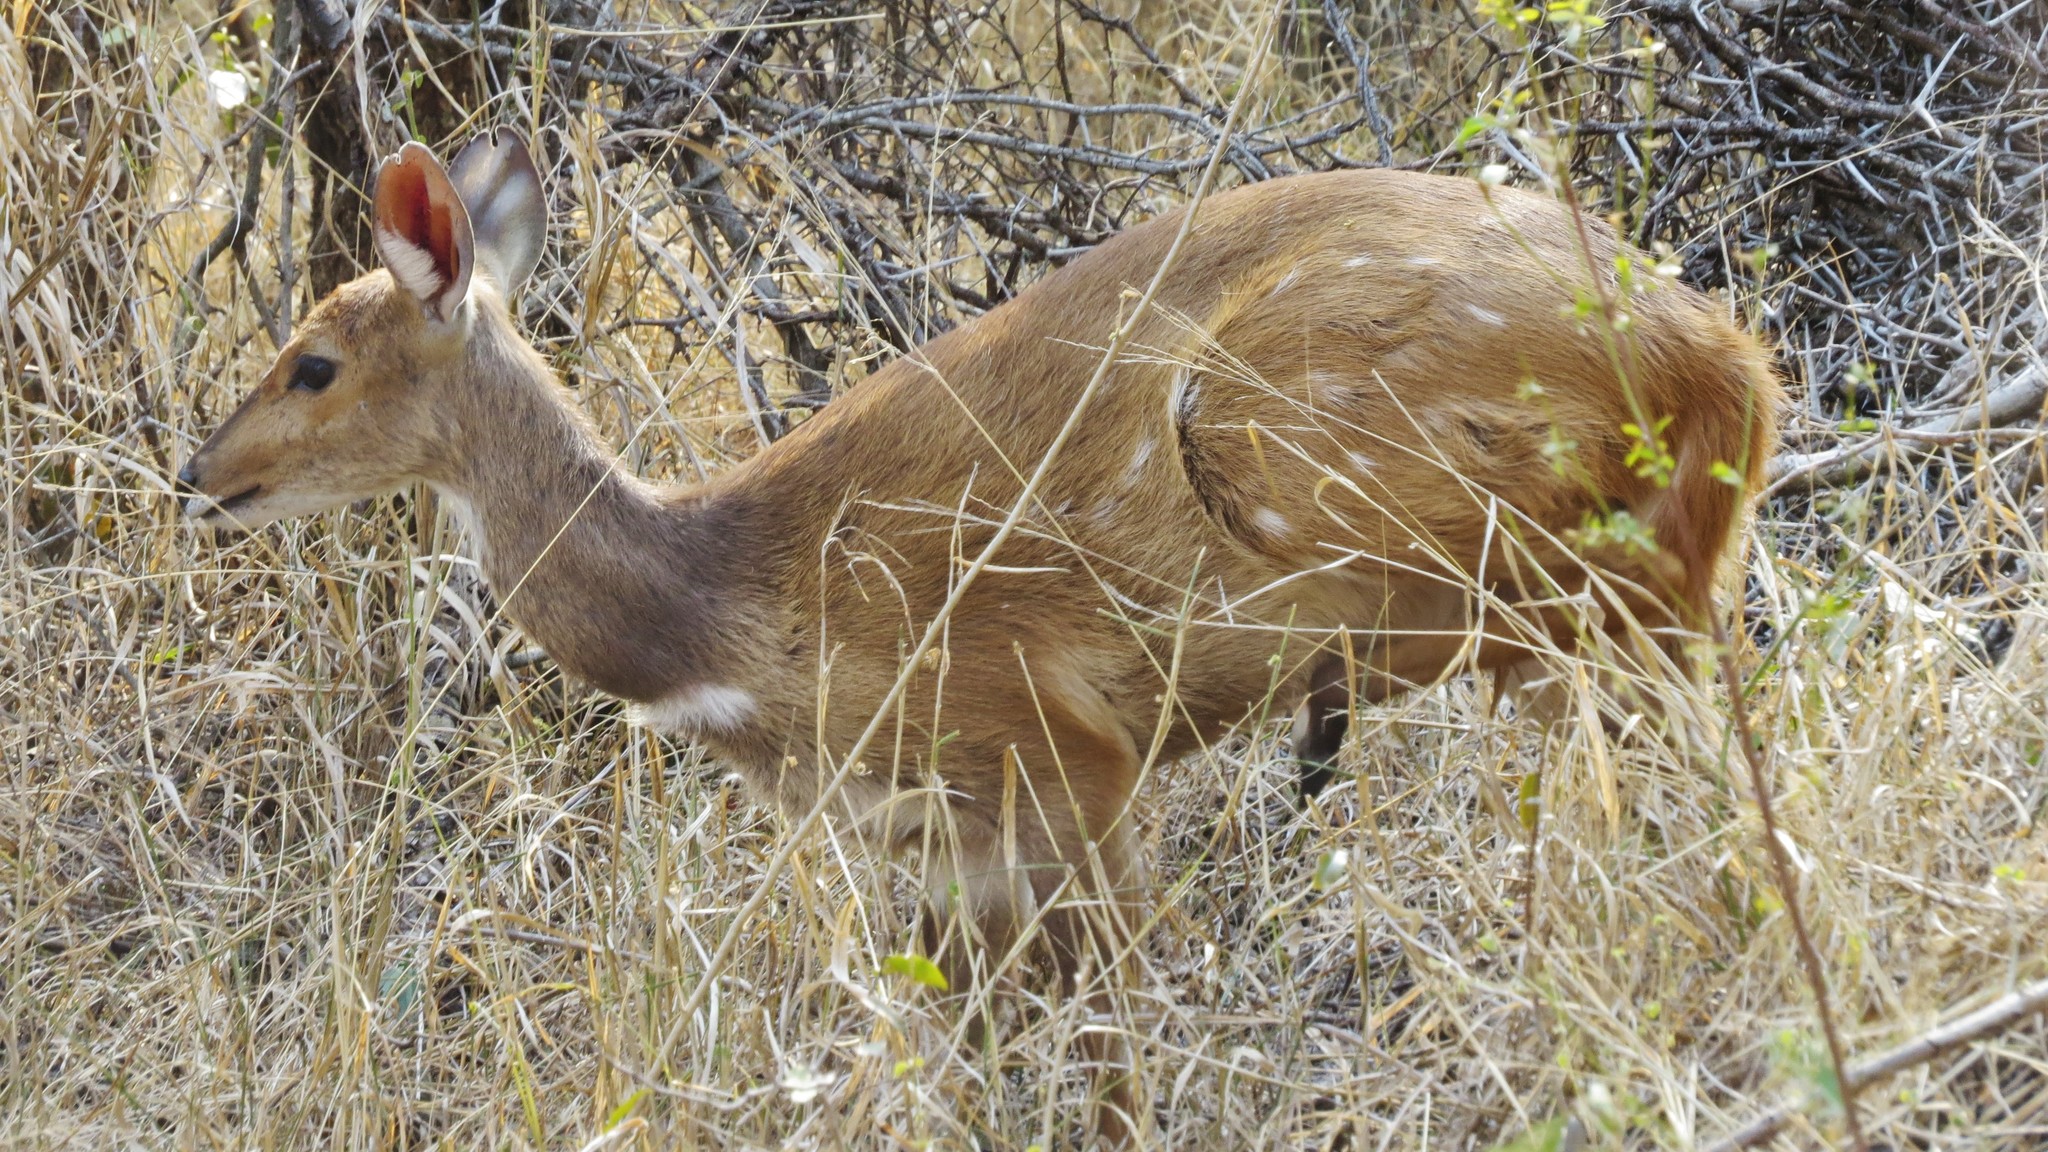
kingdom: Animalia
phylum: Chordata
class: Mammalia
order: Artiodactyla
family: Bovidae
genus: Tragelaphus
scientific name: Tragelaphus scriptus
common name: Bushbuck
